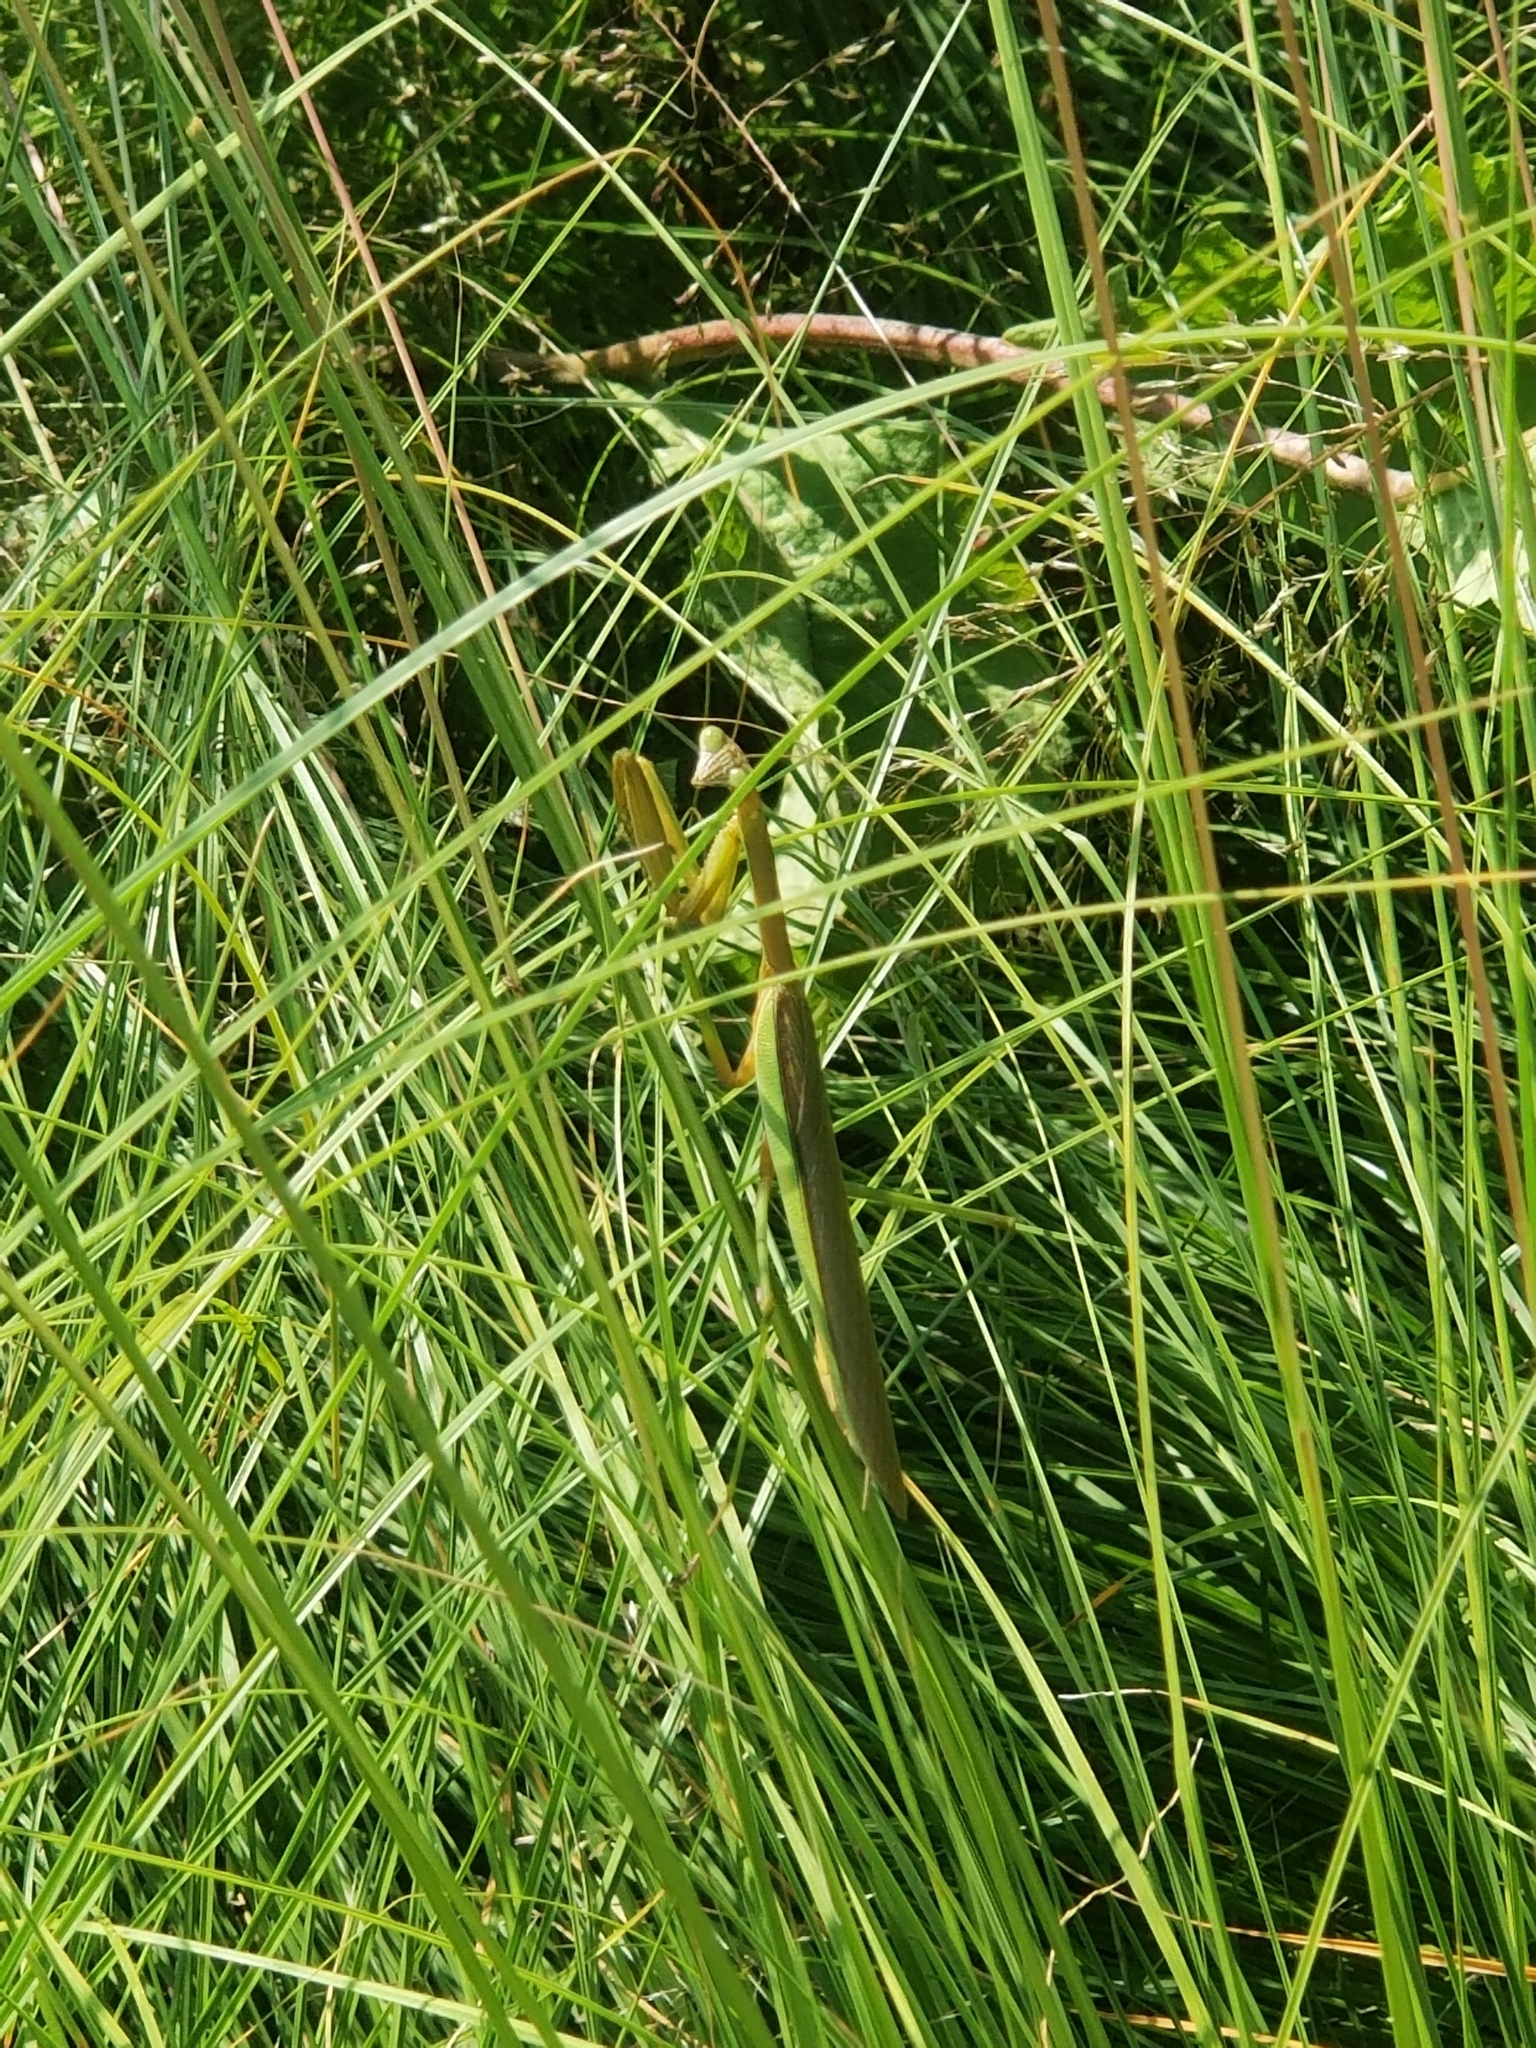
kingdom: Animalia
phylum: Arthropoda
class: Insecta
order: Mantodea
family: Mantidae
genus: Tenodera
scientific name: Tenodera sinensis
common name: Chinese mantis
